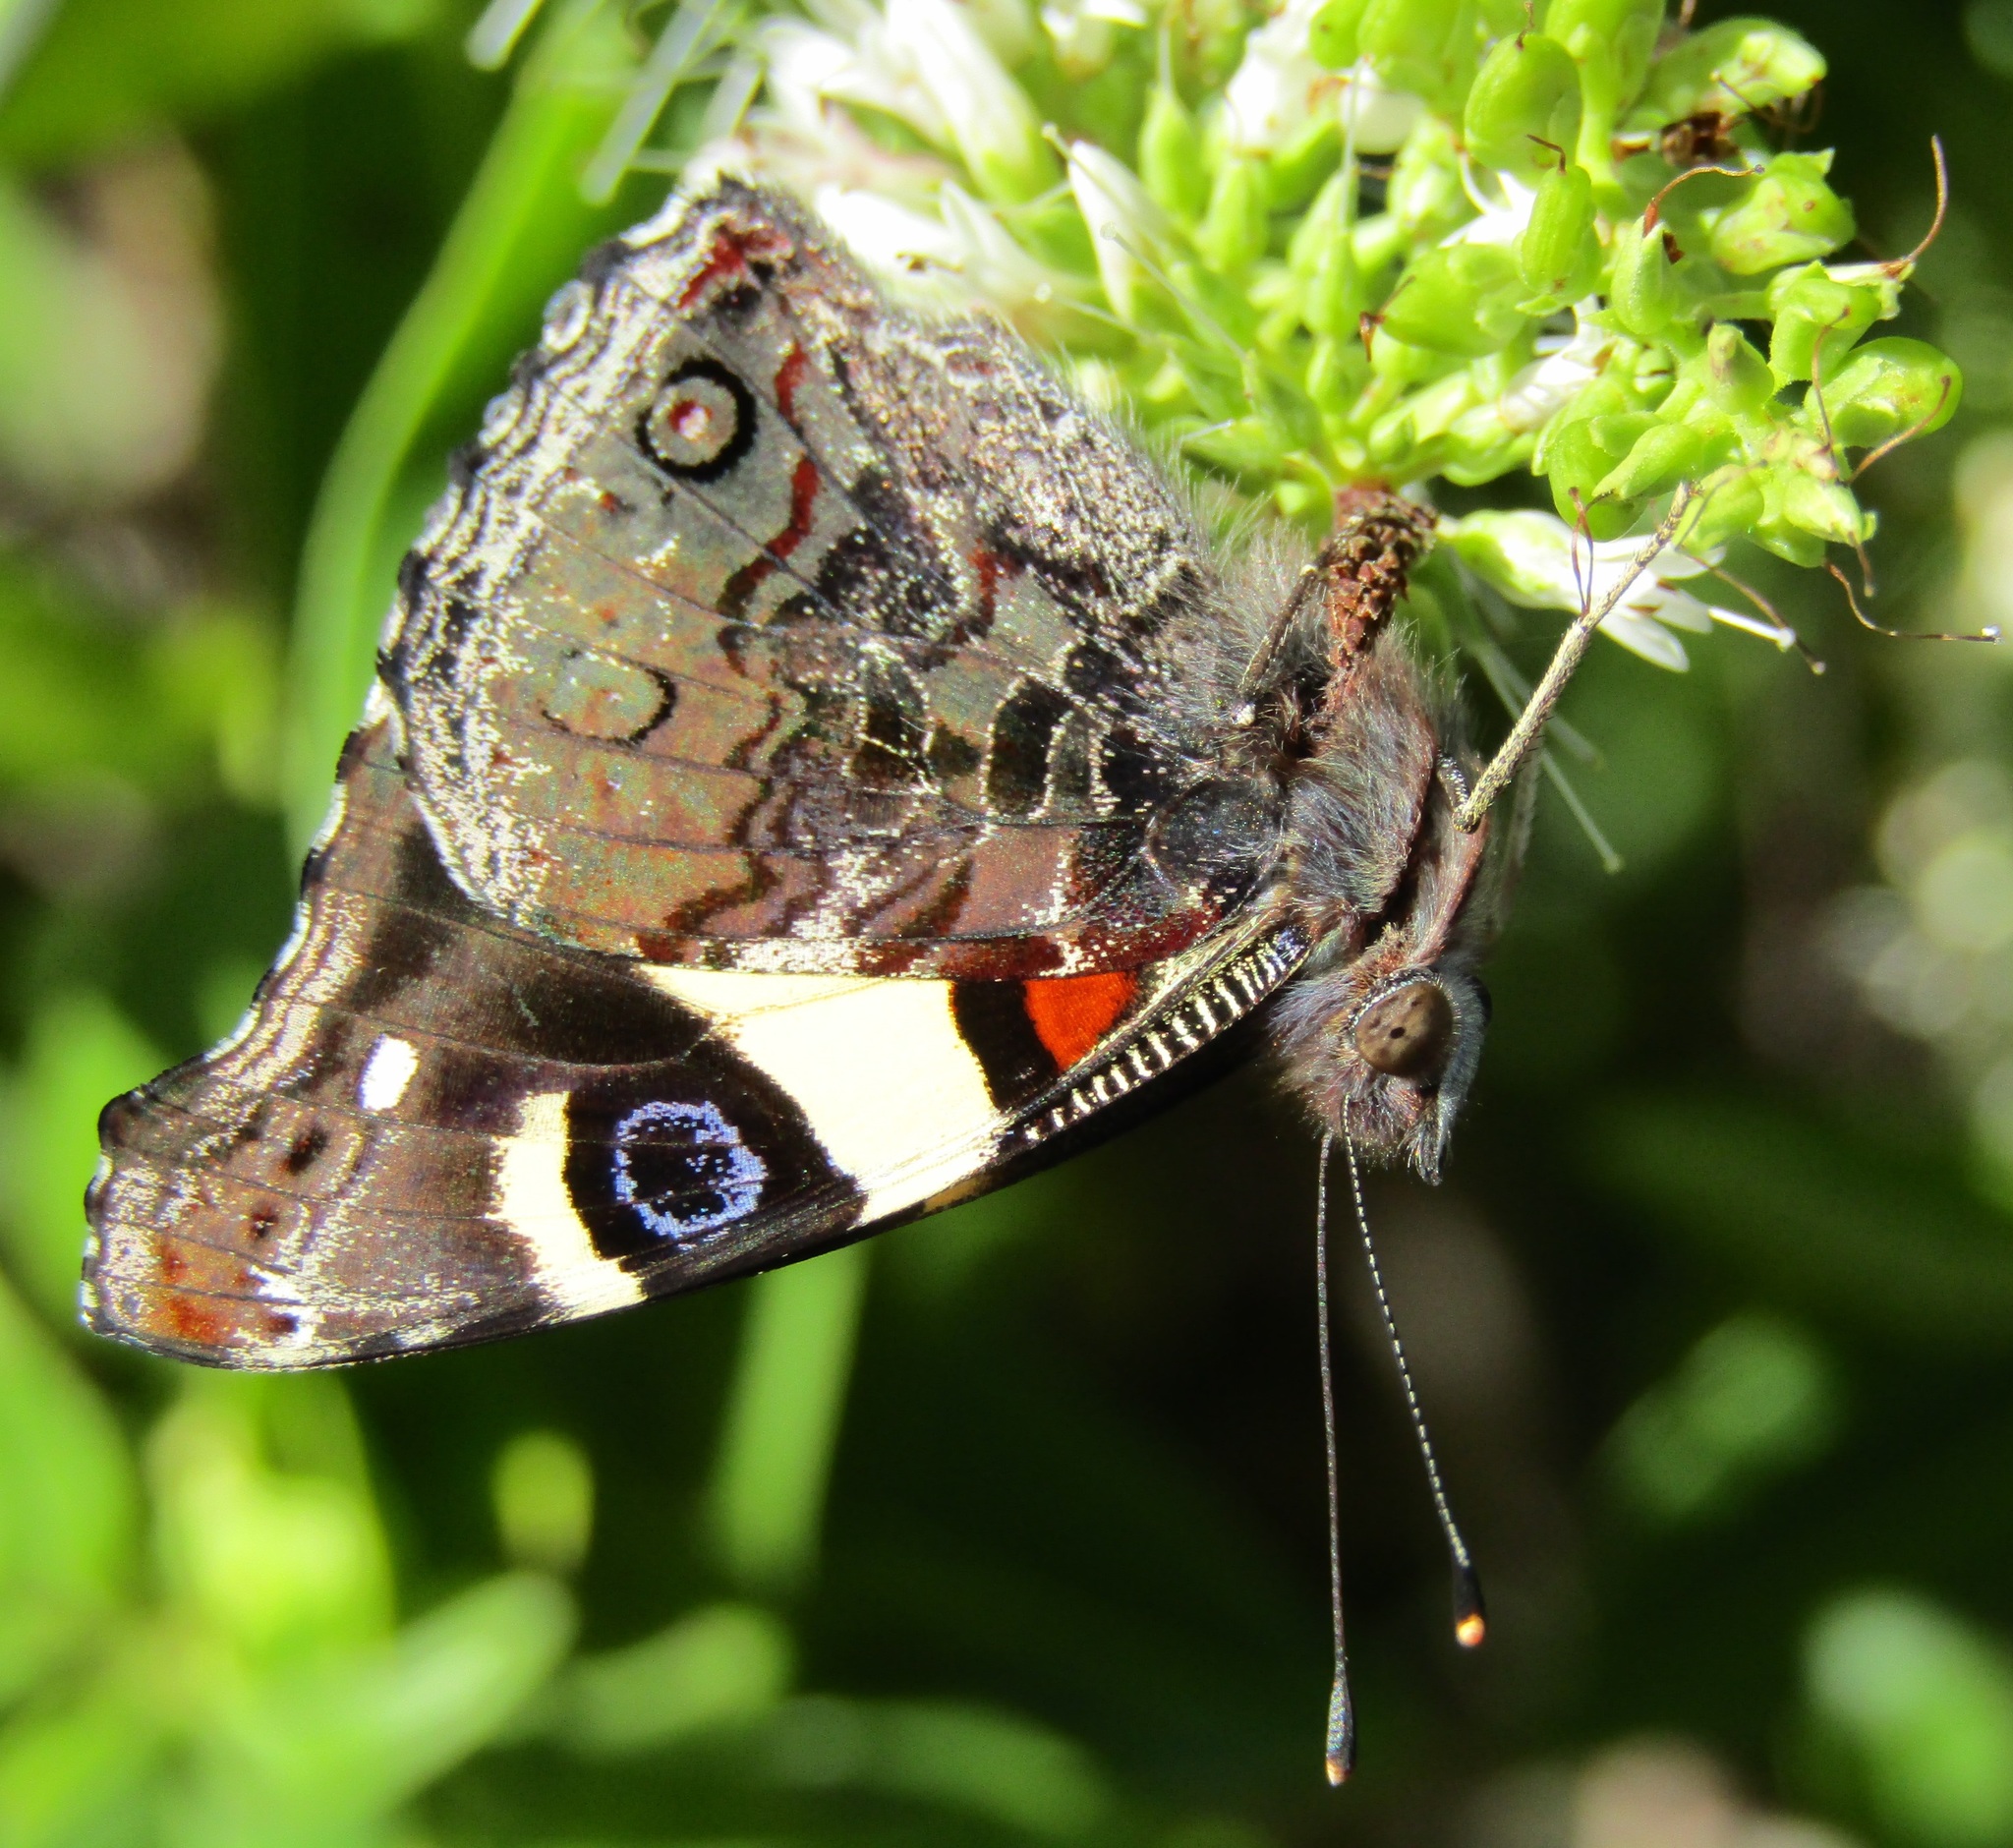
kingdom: Animalia
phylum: Arthropoda
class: Insecta
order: Lepidoptera
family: Nymphalidae
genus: Vanessa
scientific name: Vanessa itea
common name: Yellow admiral
